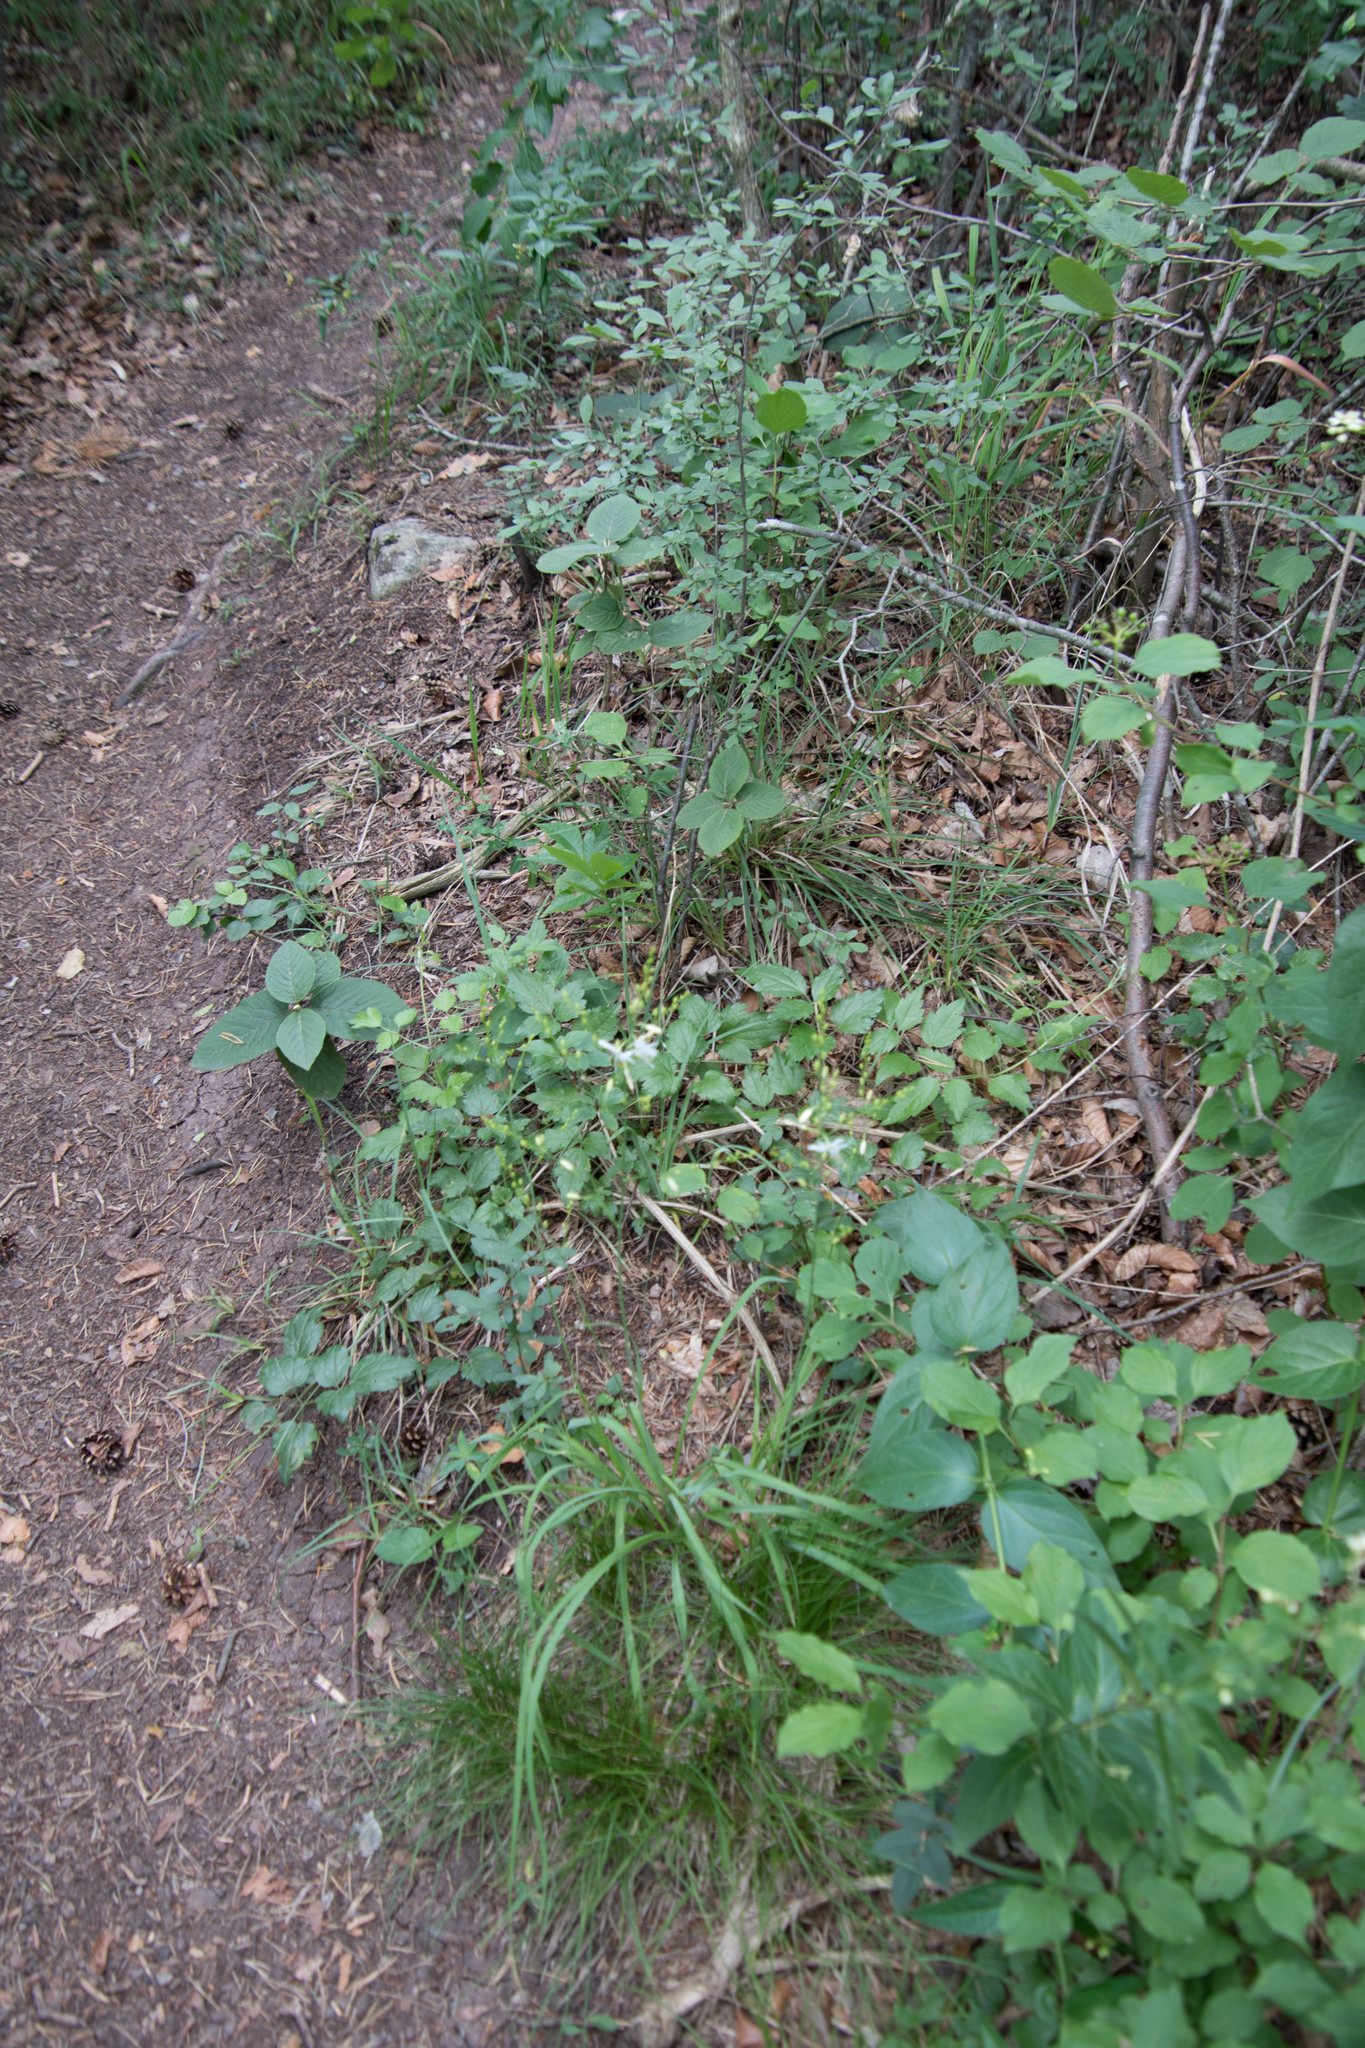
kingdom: Plantae
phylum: Tracheophyta
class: Liliopsida
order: Asparagales
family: Asparagaceae
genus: Anthericum
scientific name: Anthericum ramosum
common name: Branched st. bernard's-lily
